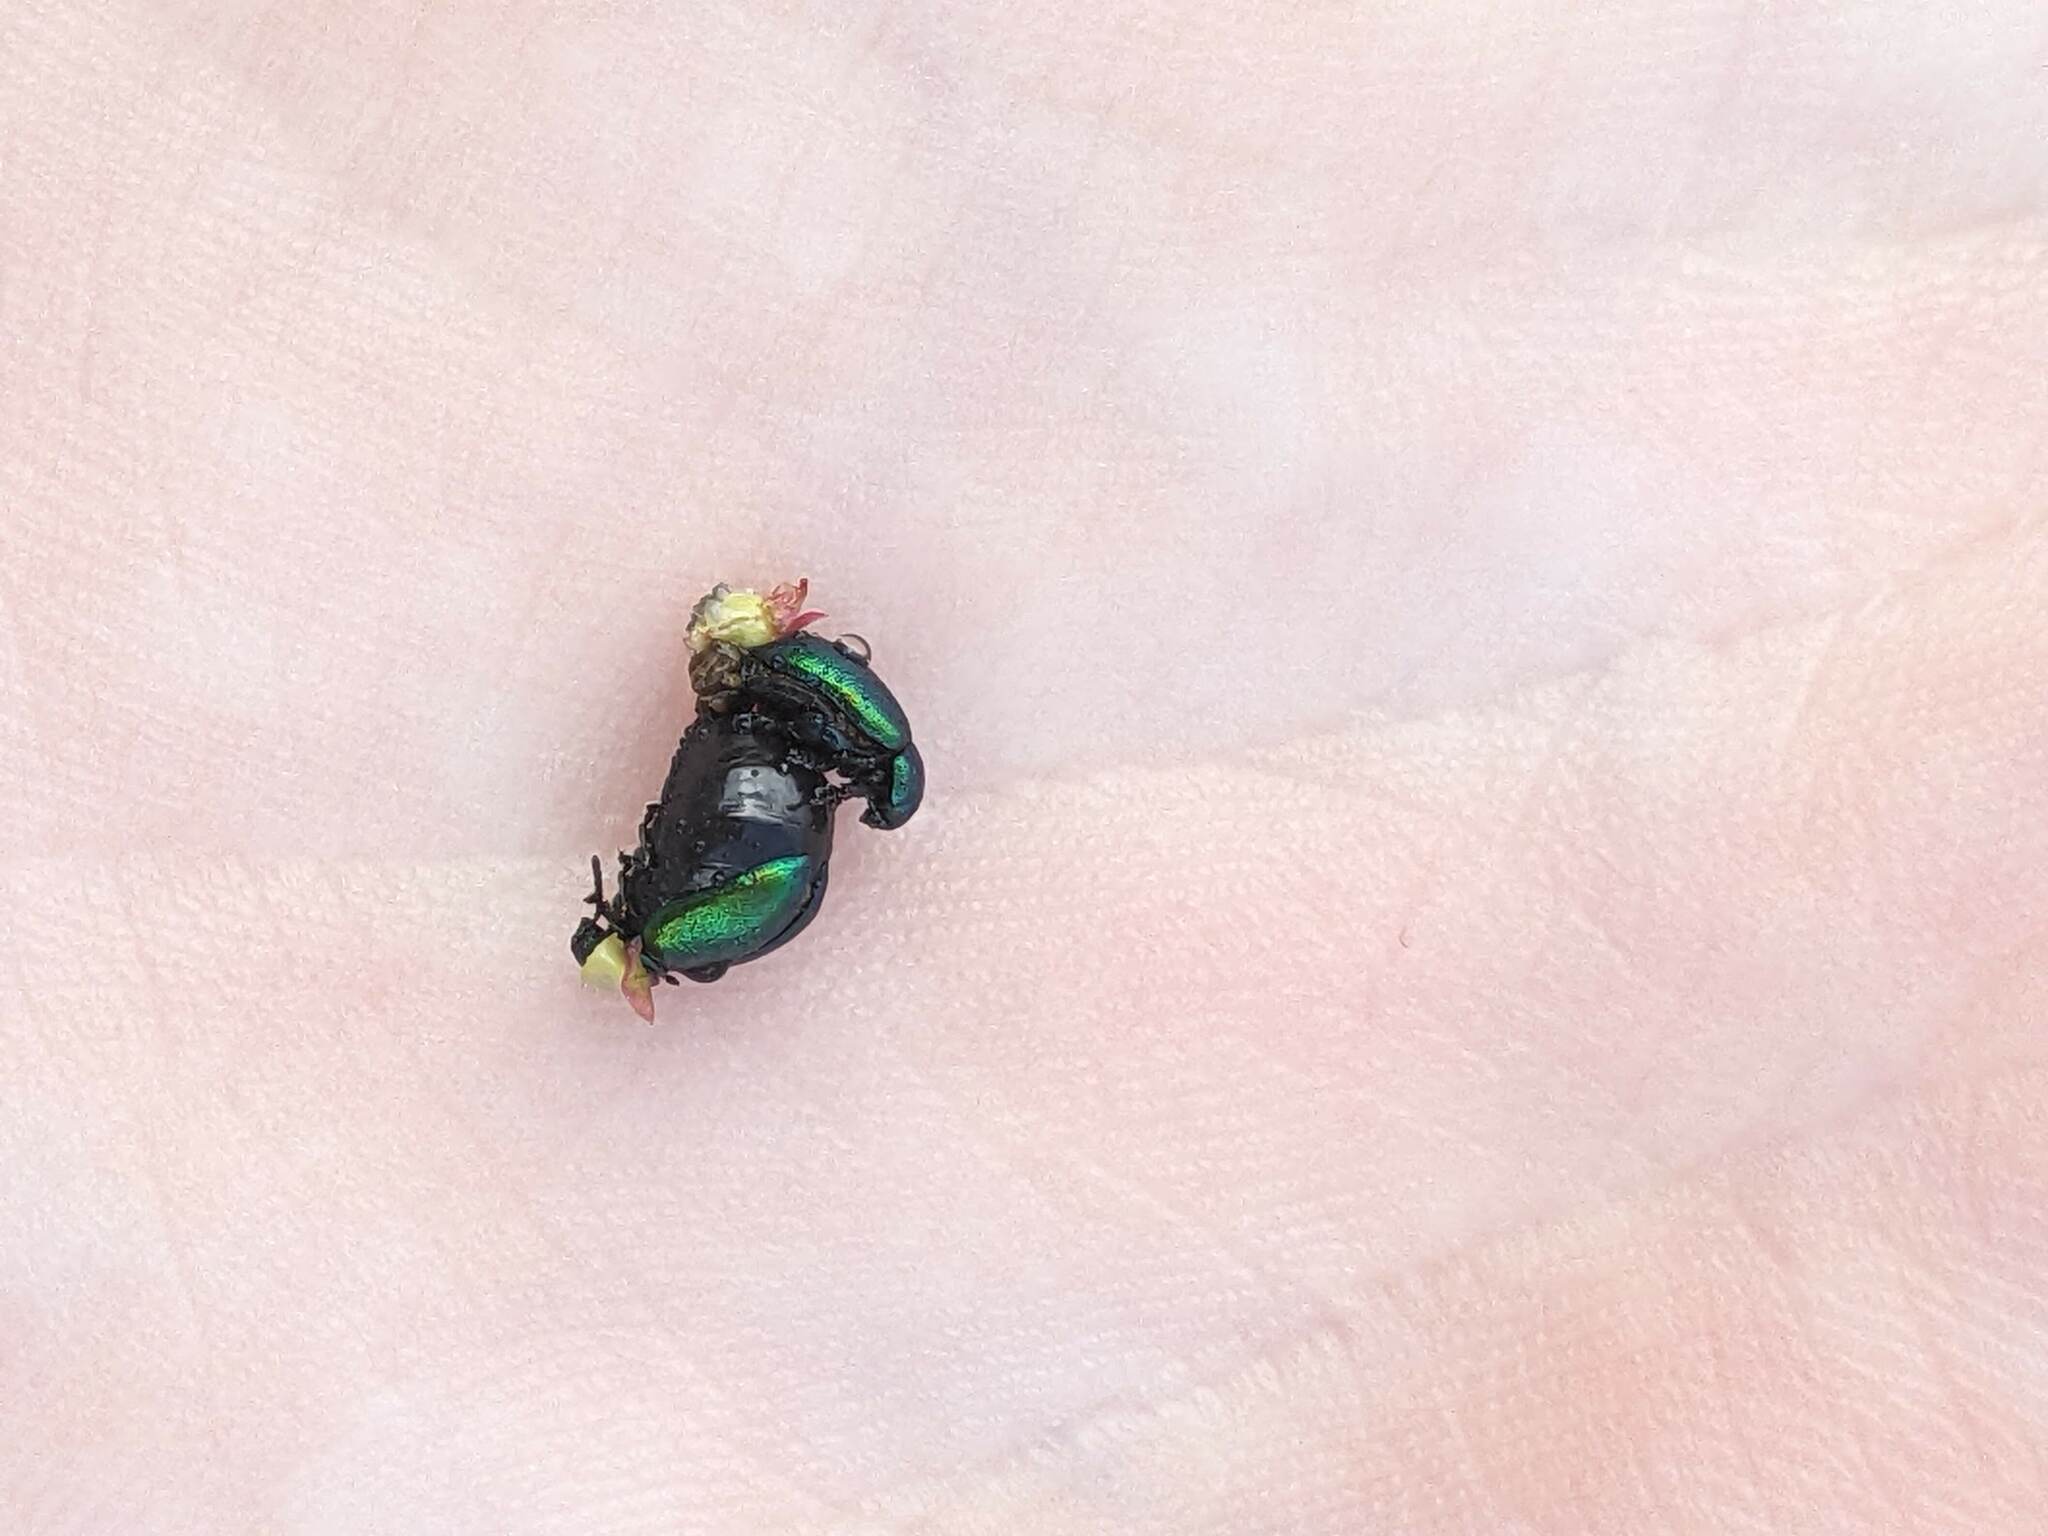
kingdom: Animalia
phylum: Arthropoda
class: Insecta
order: Coleoptera
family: Chrysomelidae
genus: Gastrophysa
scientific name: Gastrophysa viridula
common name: Green dock beetle
